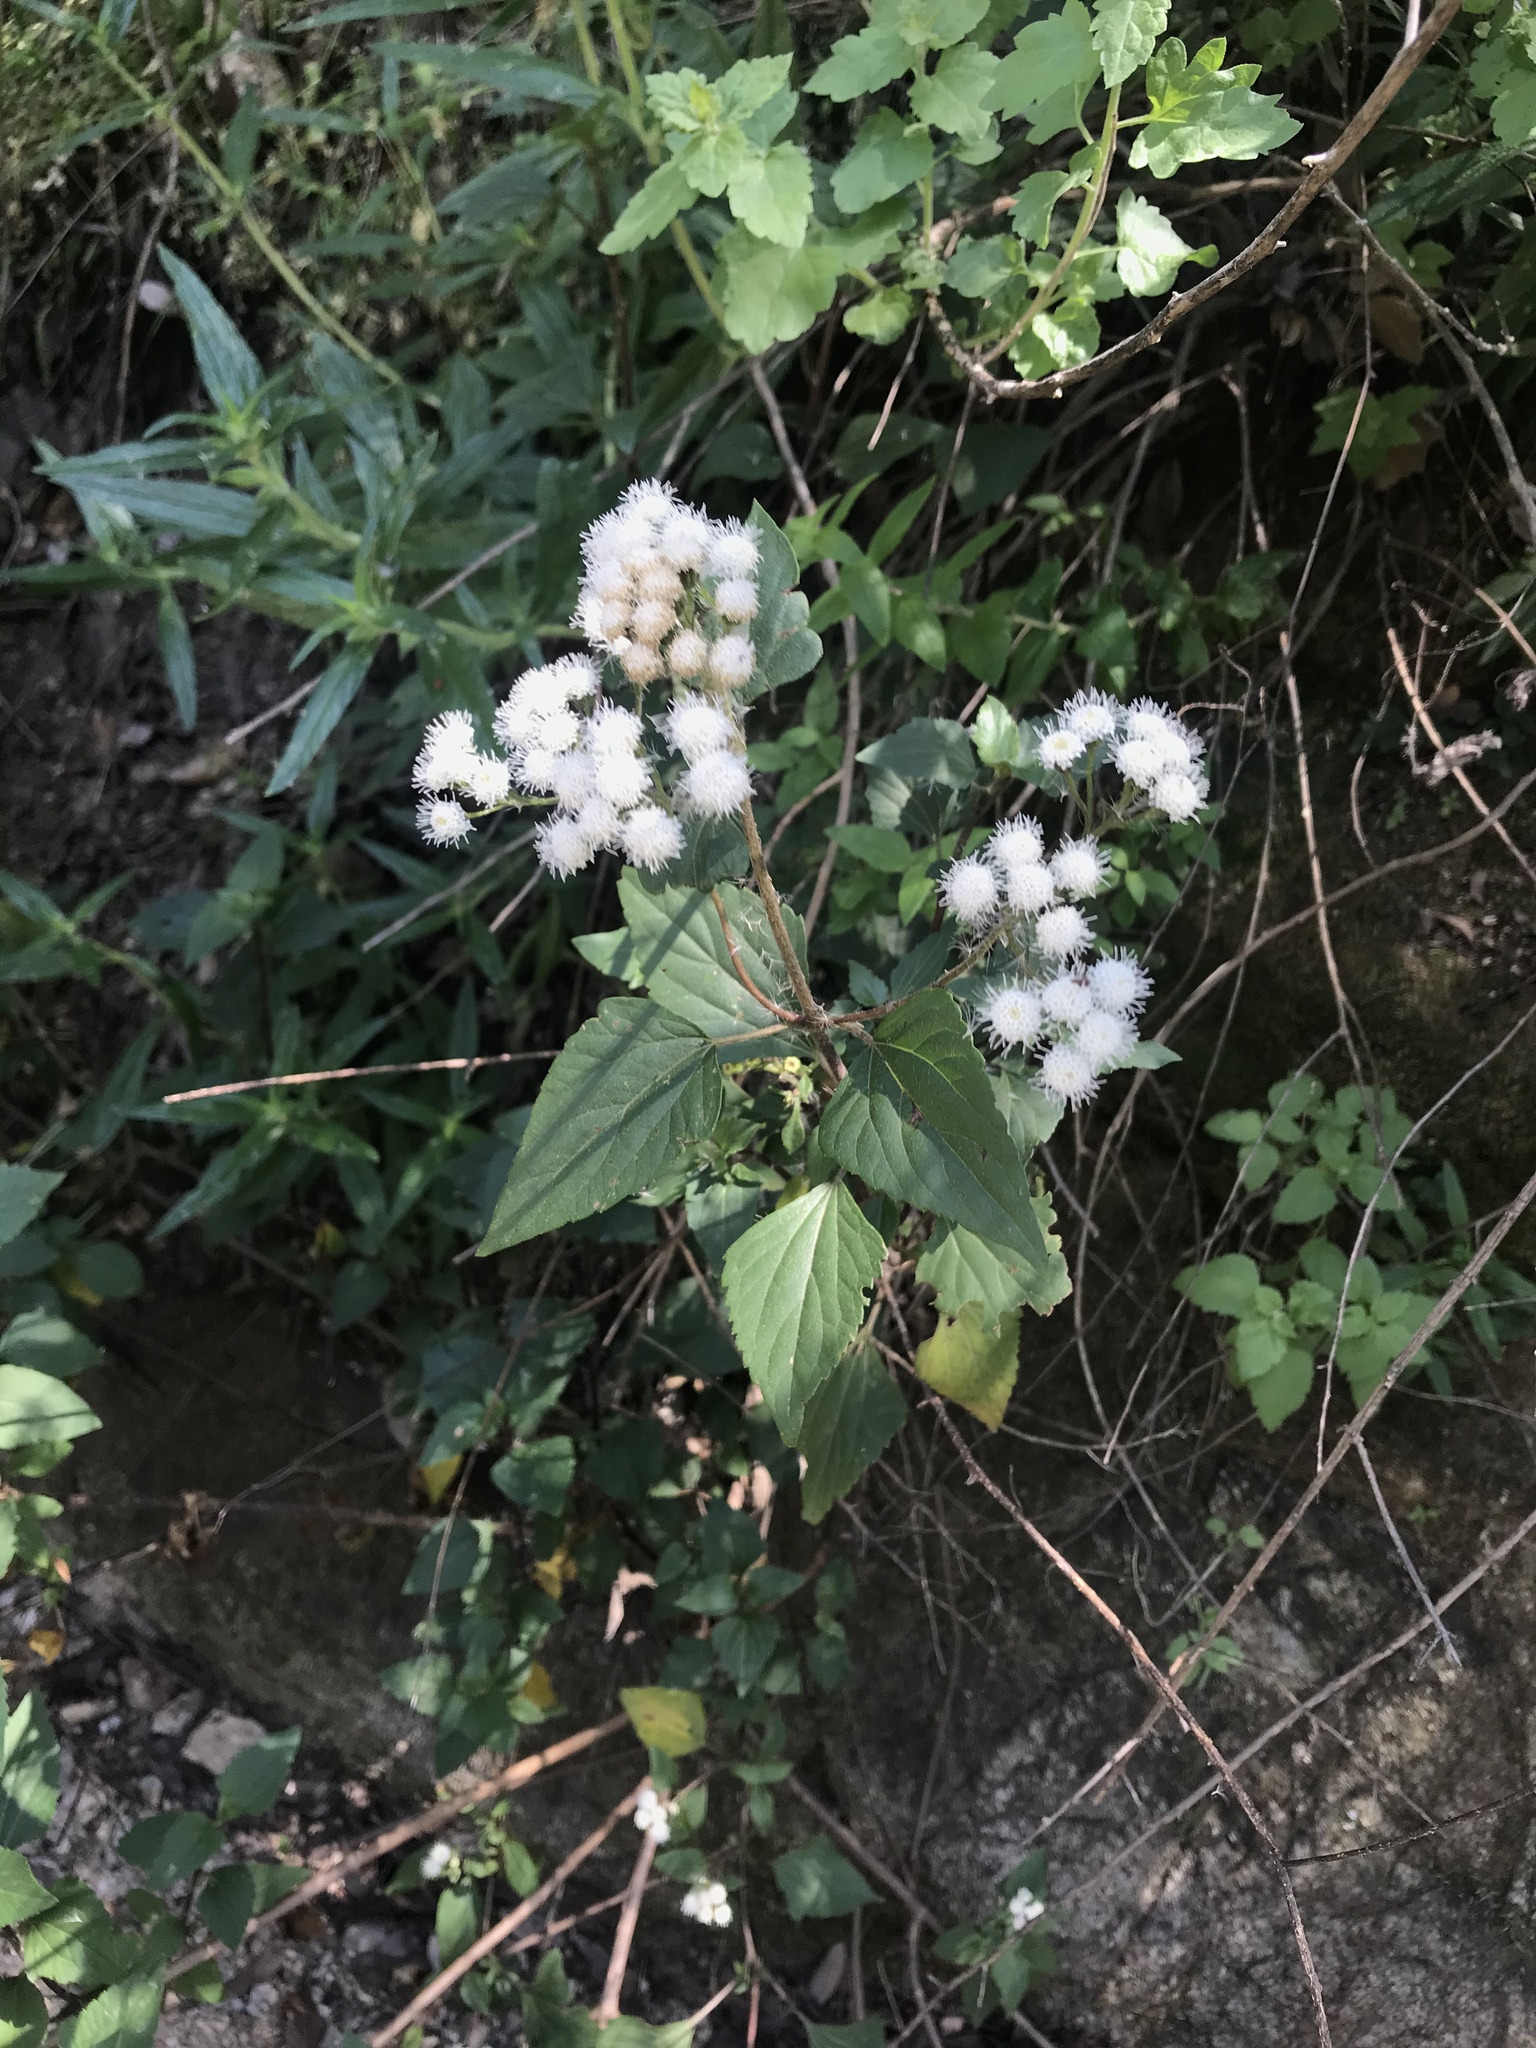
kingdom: Plantae
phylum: Tracheophyta
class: Magnoliopsida
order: Asterales
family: Asteraceae
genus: Ageratina
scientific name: Ageratina adenophora
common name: Sticky snakeroot
